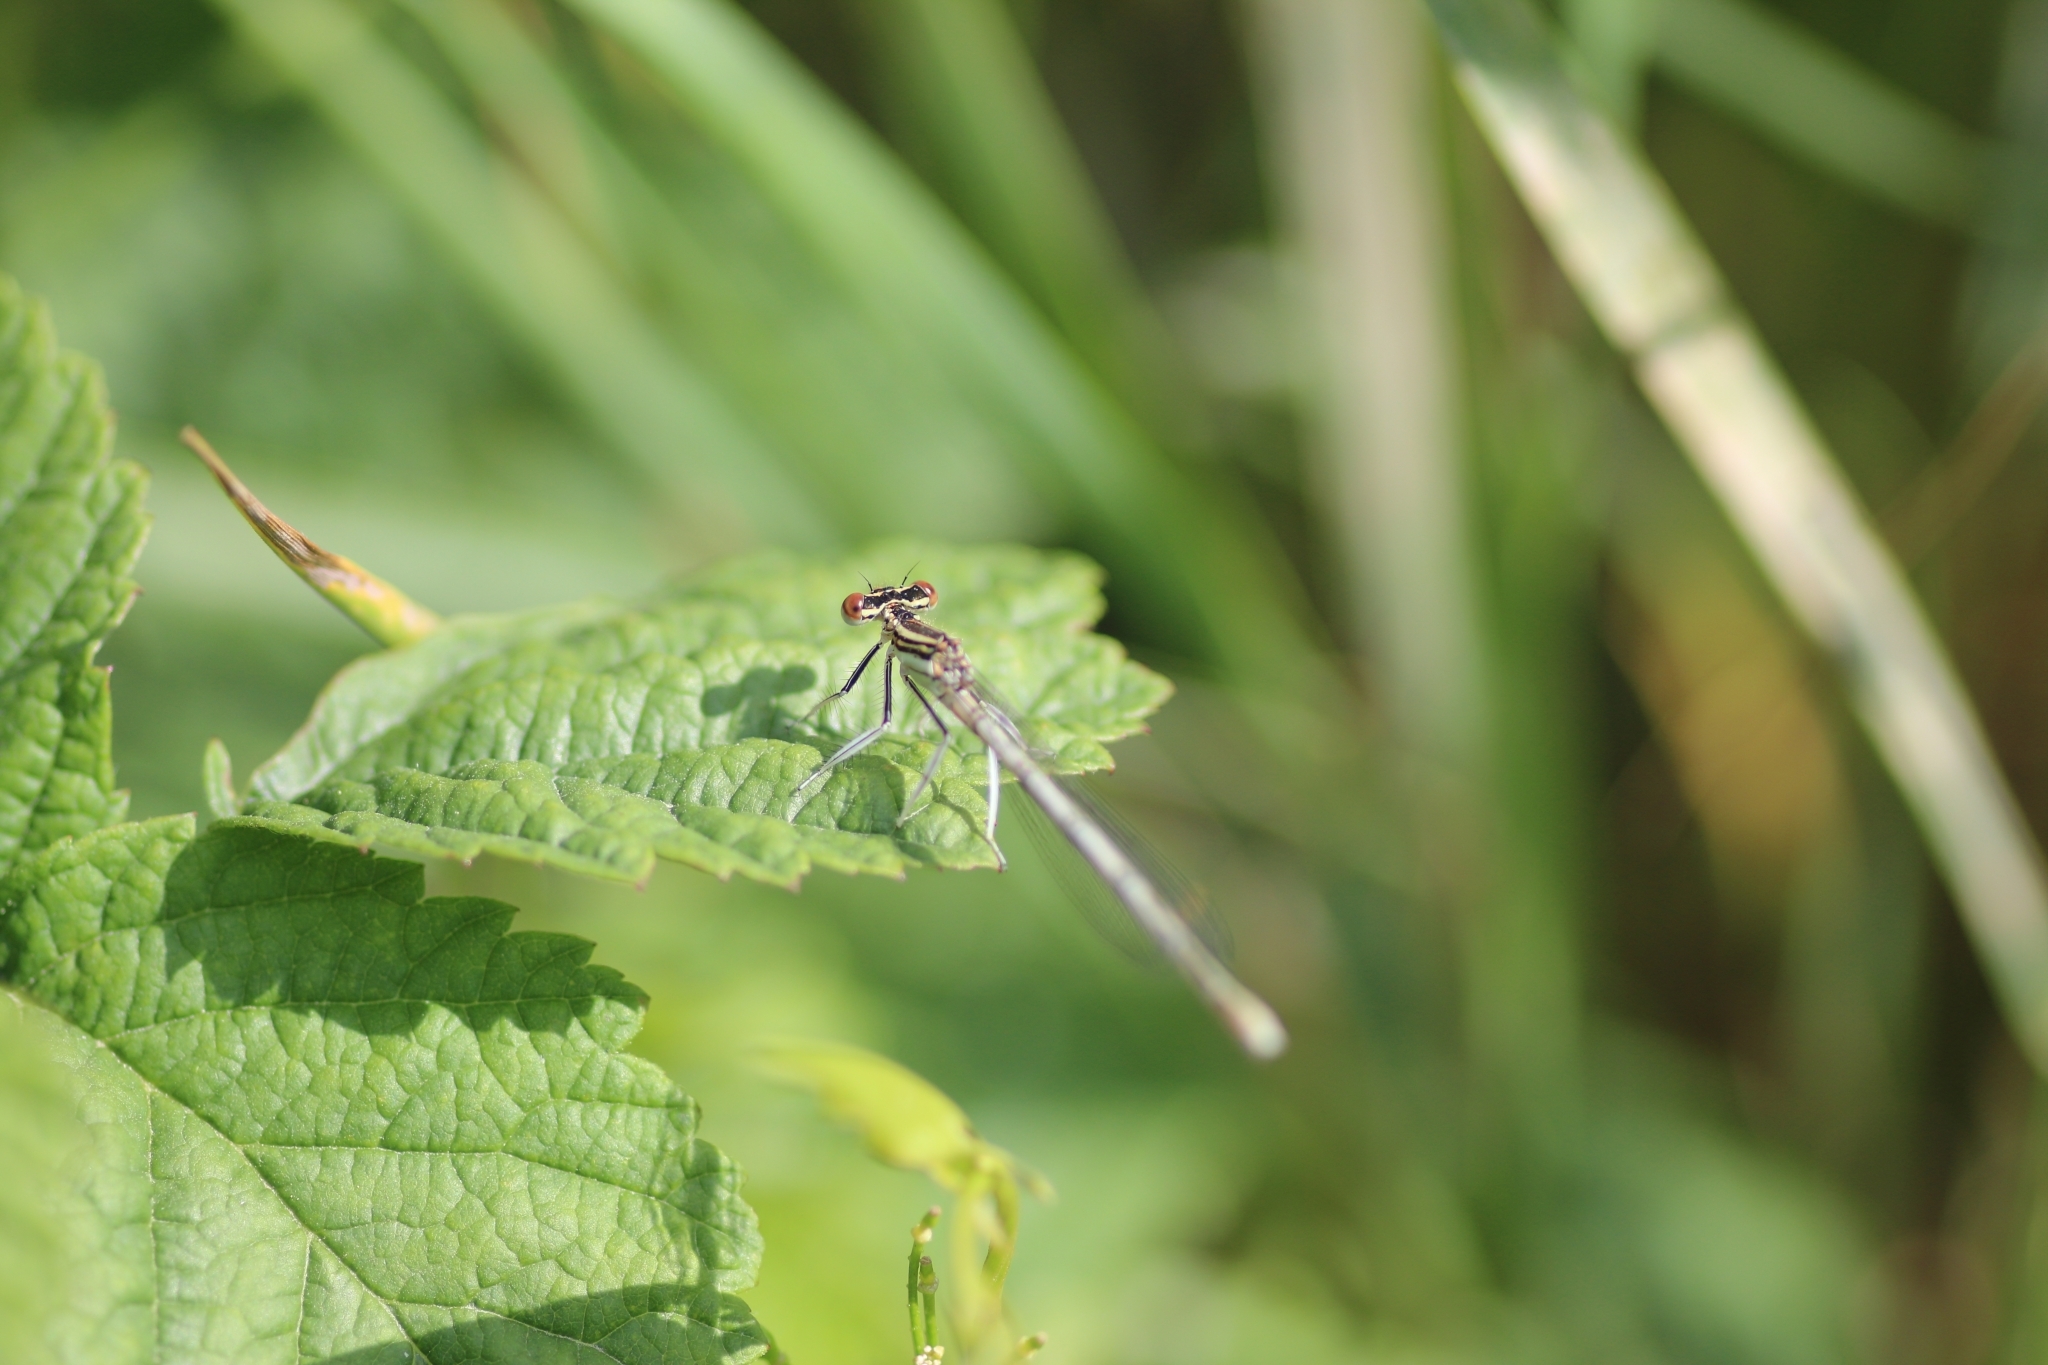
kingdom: Animalia
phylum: Arthropoda
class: Insecta
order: Odonata
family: Platycnemididae
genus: Platycnemis
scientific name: Platycnemis pennipes
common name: White-legged damselfly
